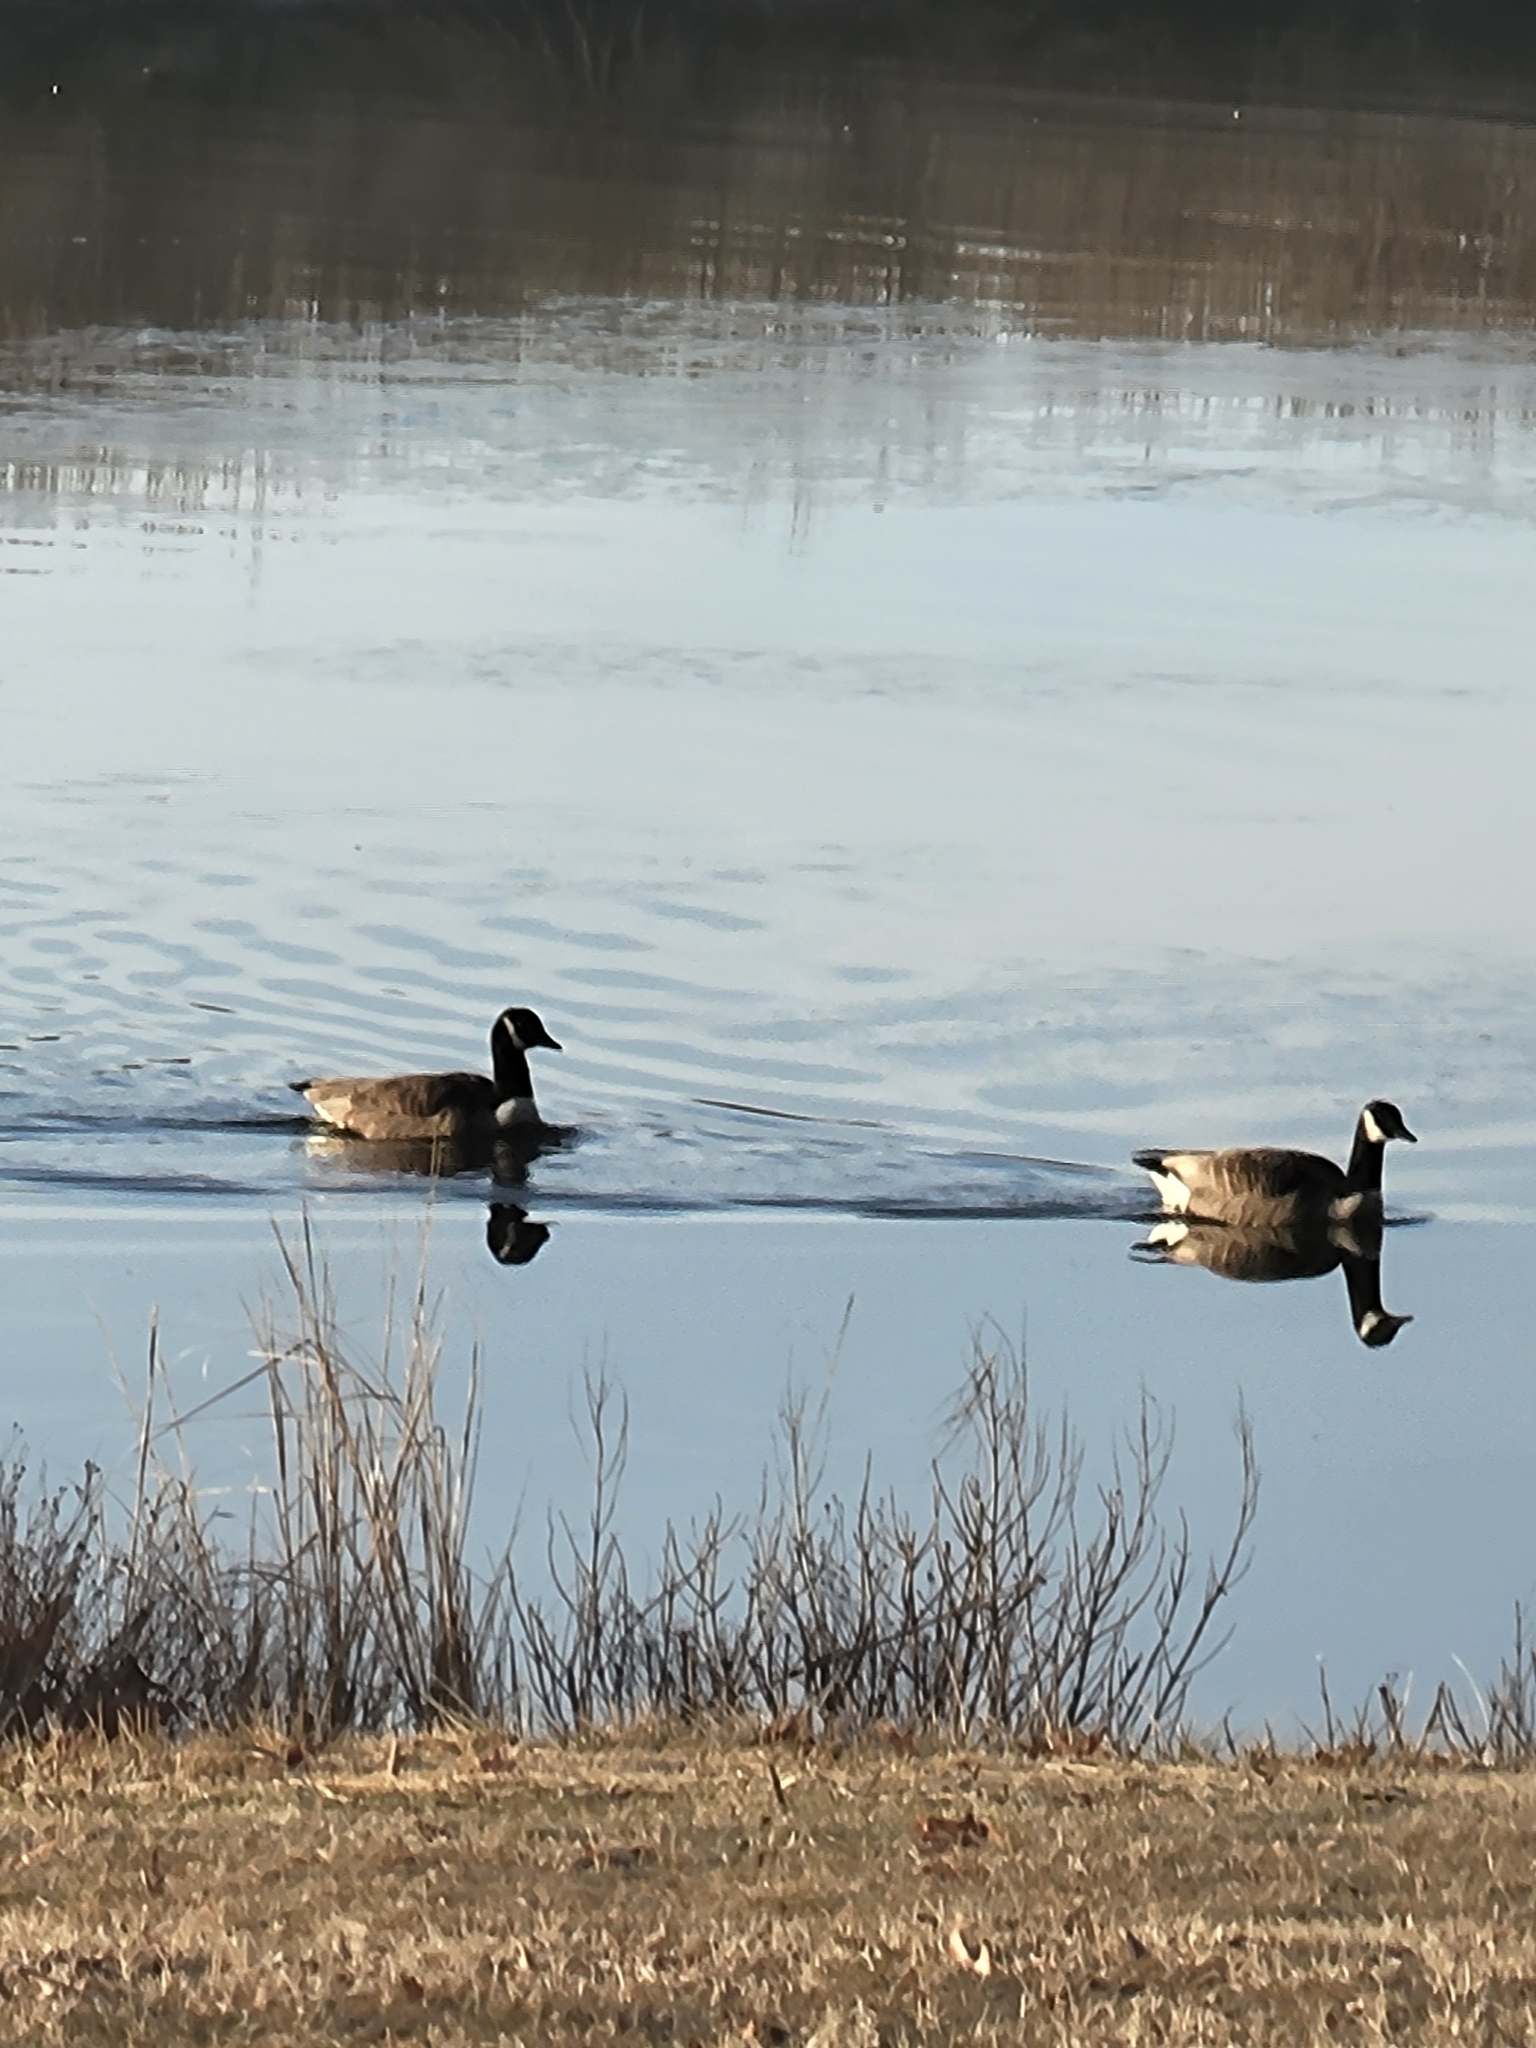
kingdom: Animalia
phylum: Chordata
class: Aves
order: Anseriformes
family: Anatidae
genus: Branta
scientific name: Branta canadensis
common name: Canada goose
